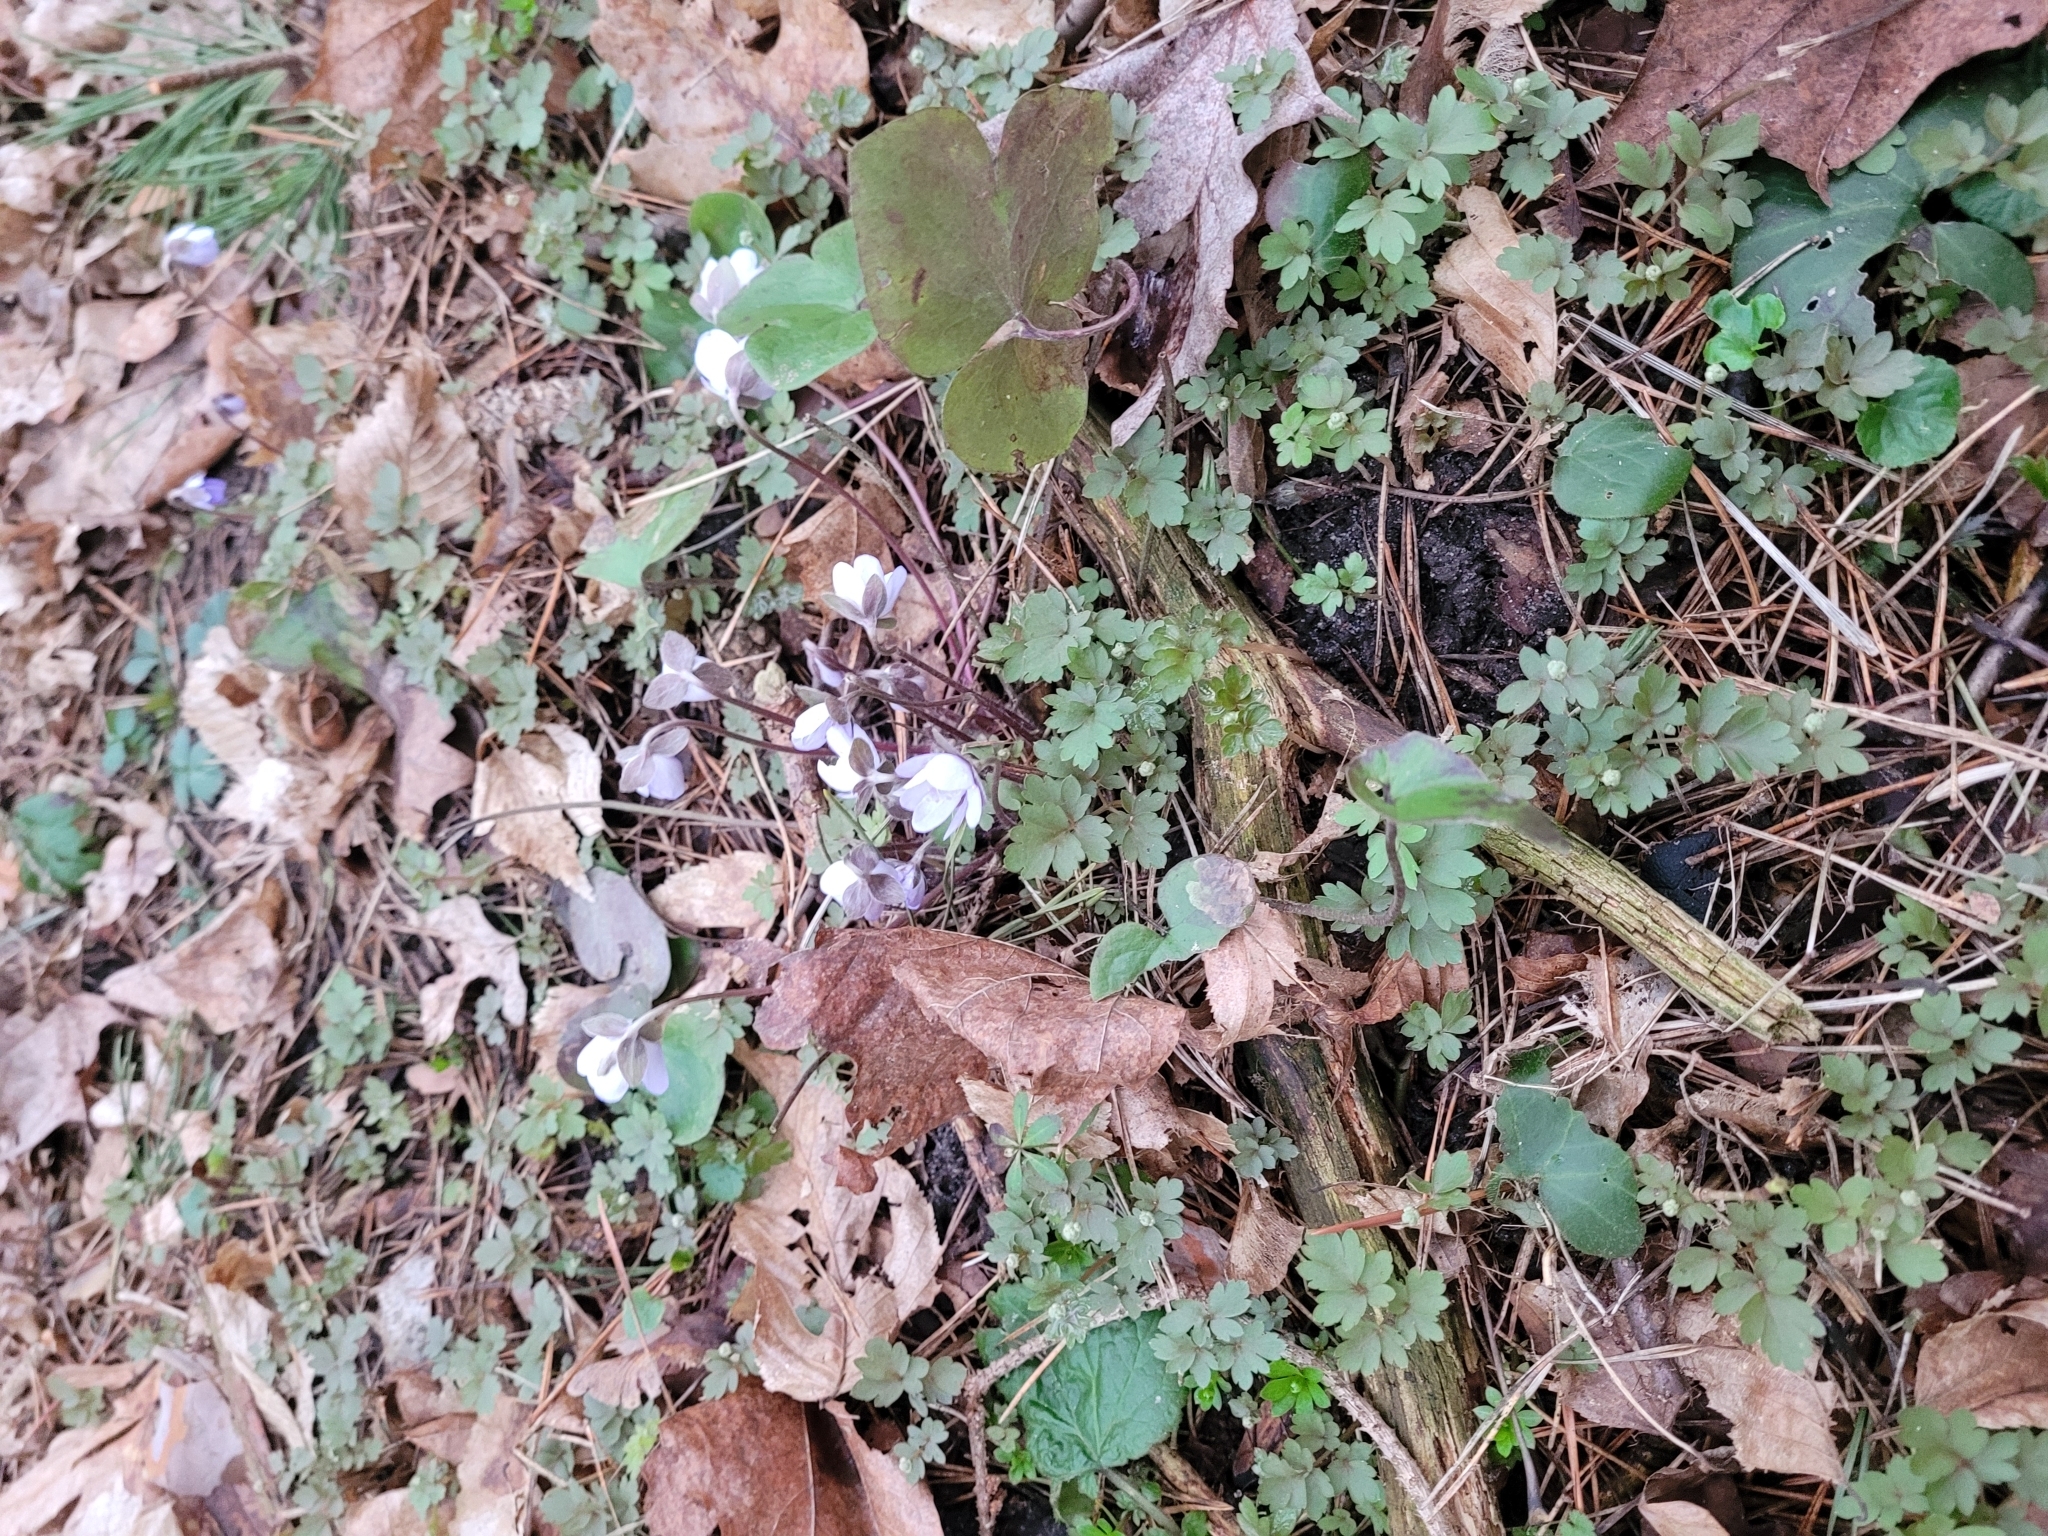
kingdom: Plantae
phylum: Tracheophyta
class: Magnoliopsida
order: Ranunculales
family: Ranunculaceae
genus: Hepatica
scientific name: Hepatica nobilis
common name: Liverleaf
